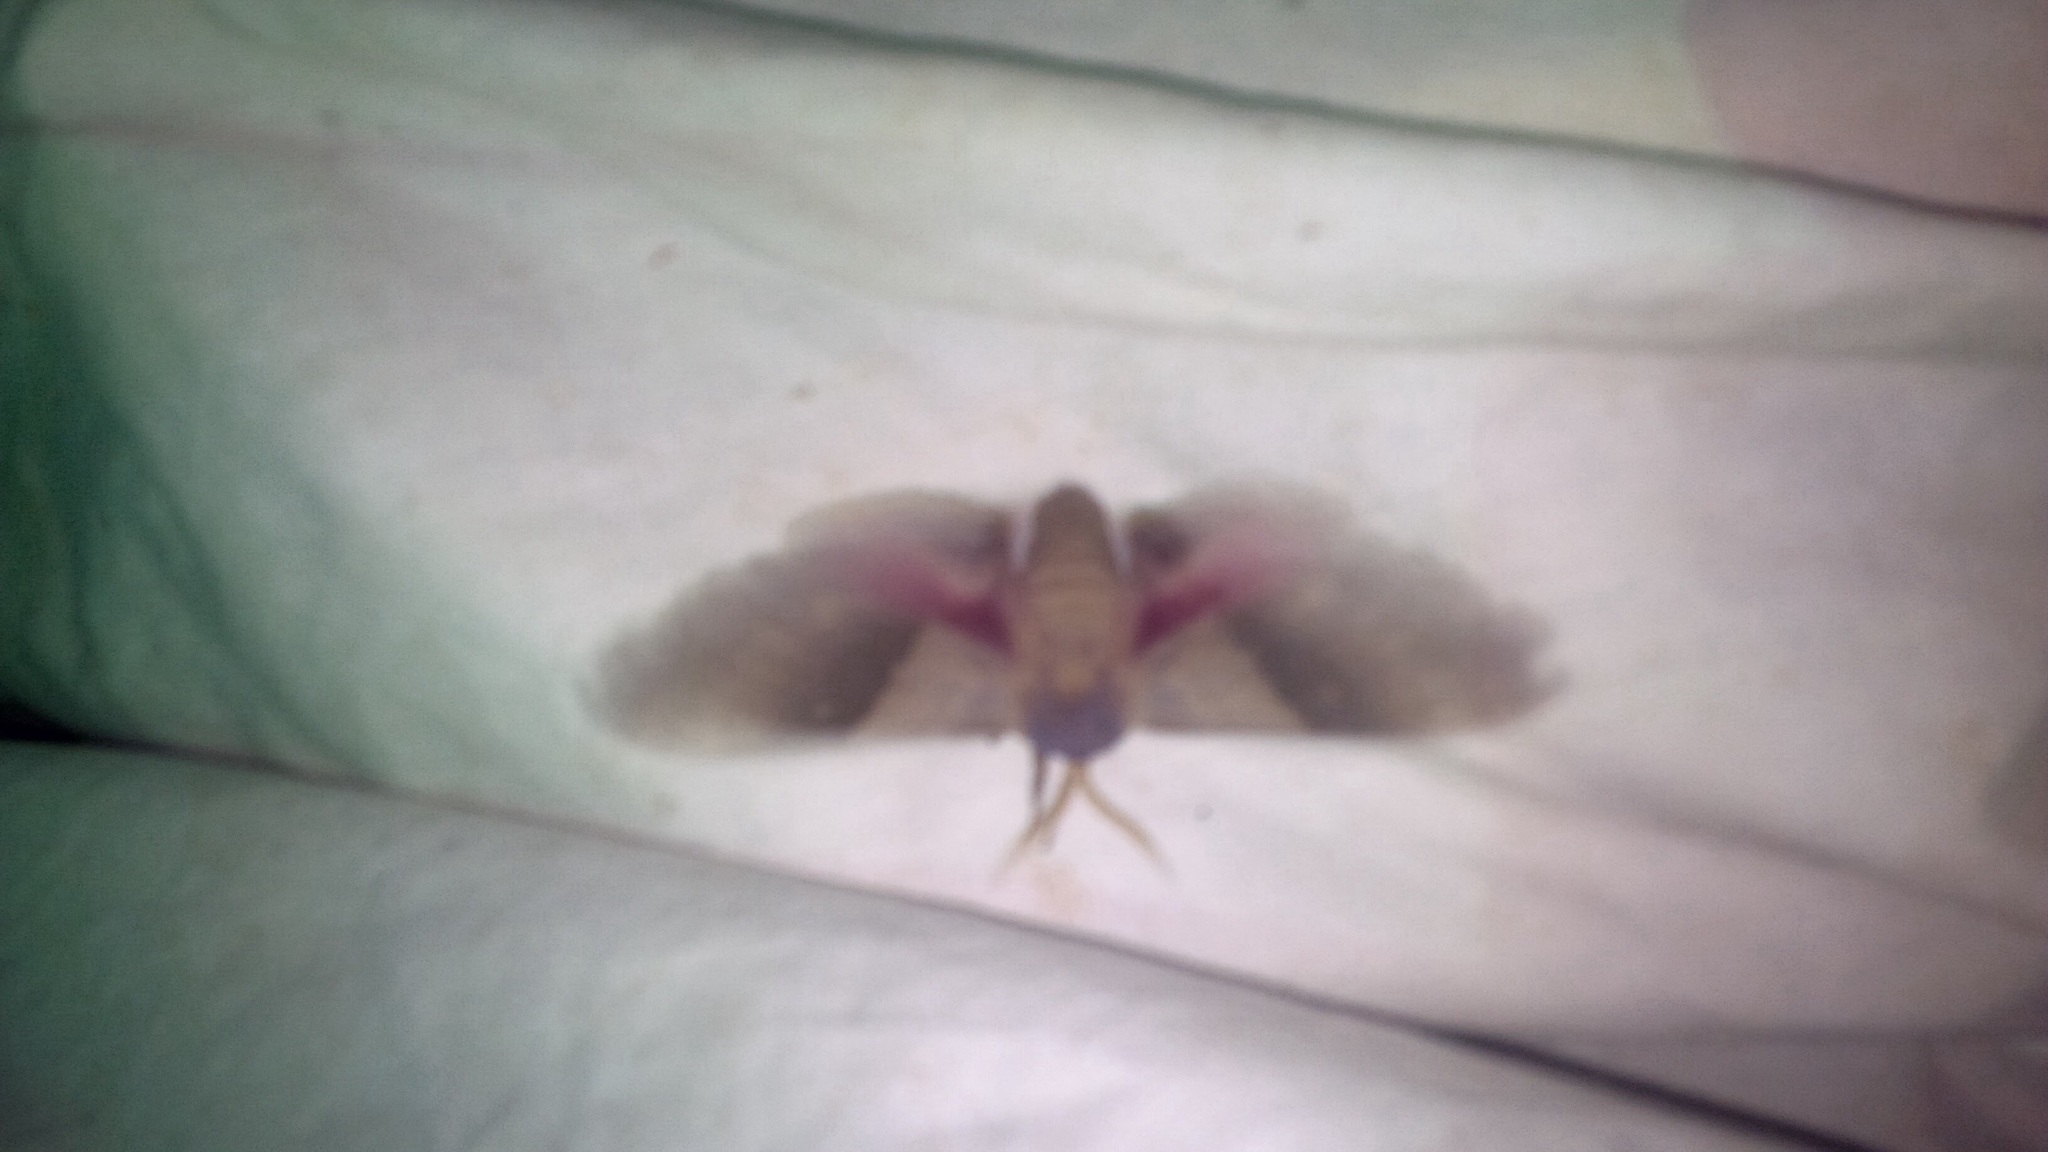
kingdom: Animalia
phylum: Arthropoda
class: Insecta
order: Lepidoptera
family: Sphingidae
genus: Pachysphinx
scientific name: Pachysphinx modesta
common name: Big poplar sphinx
